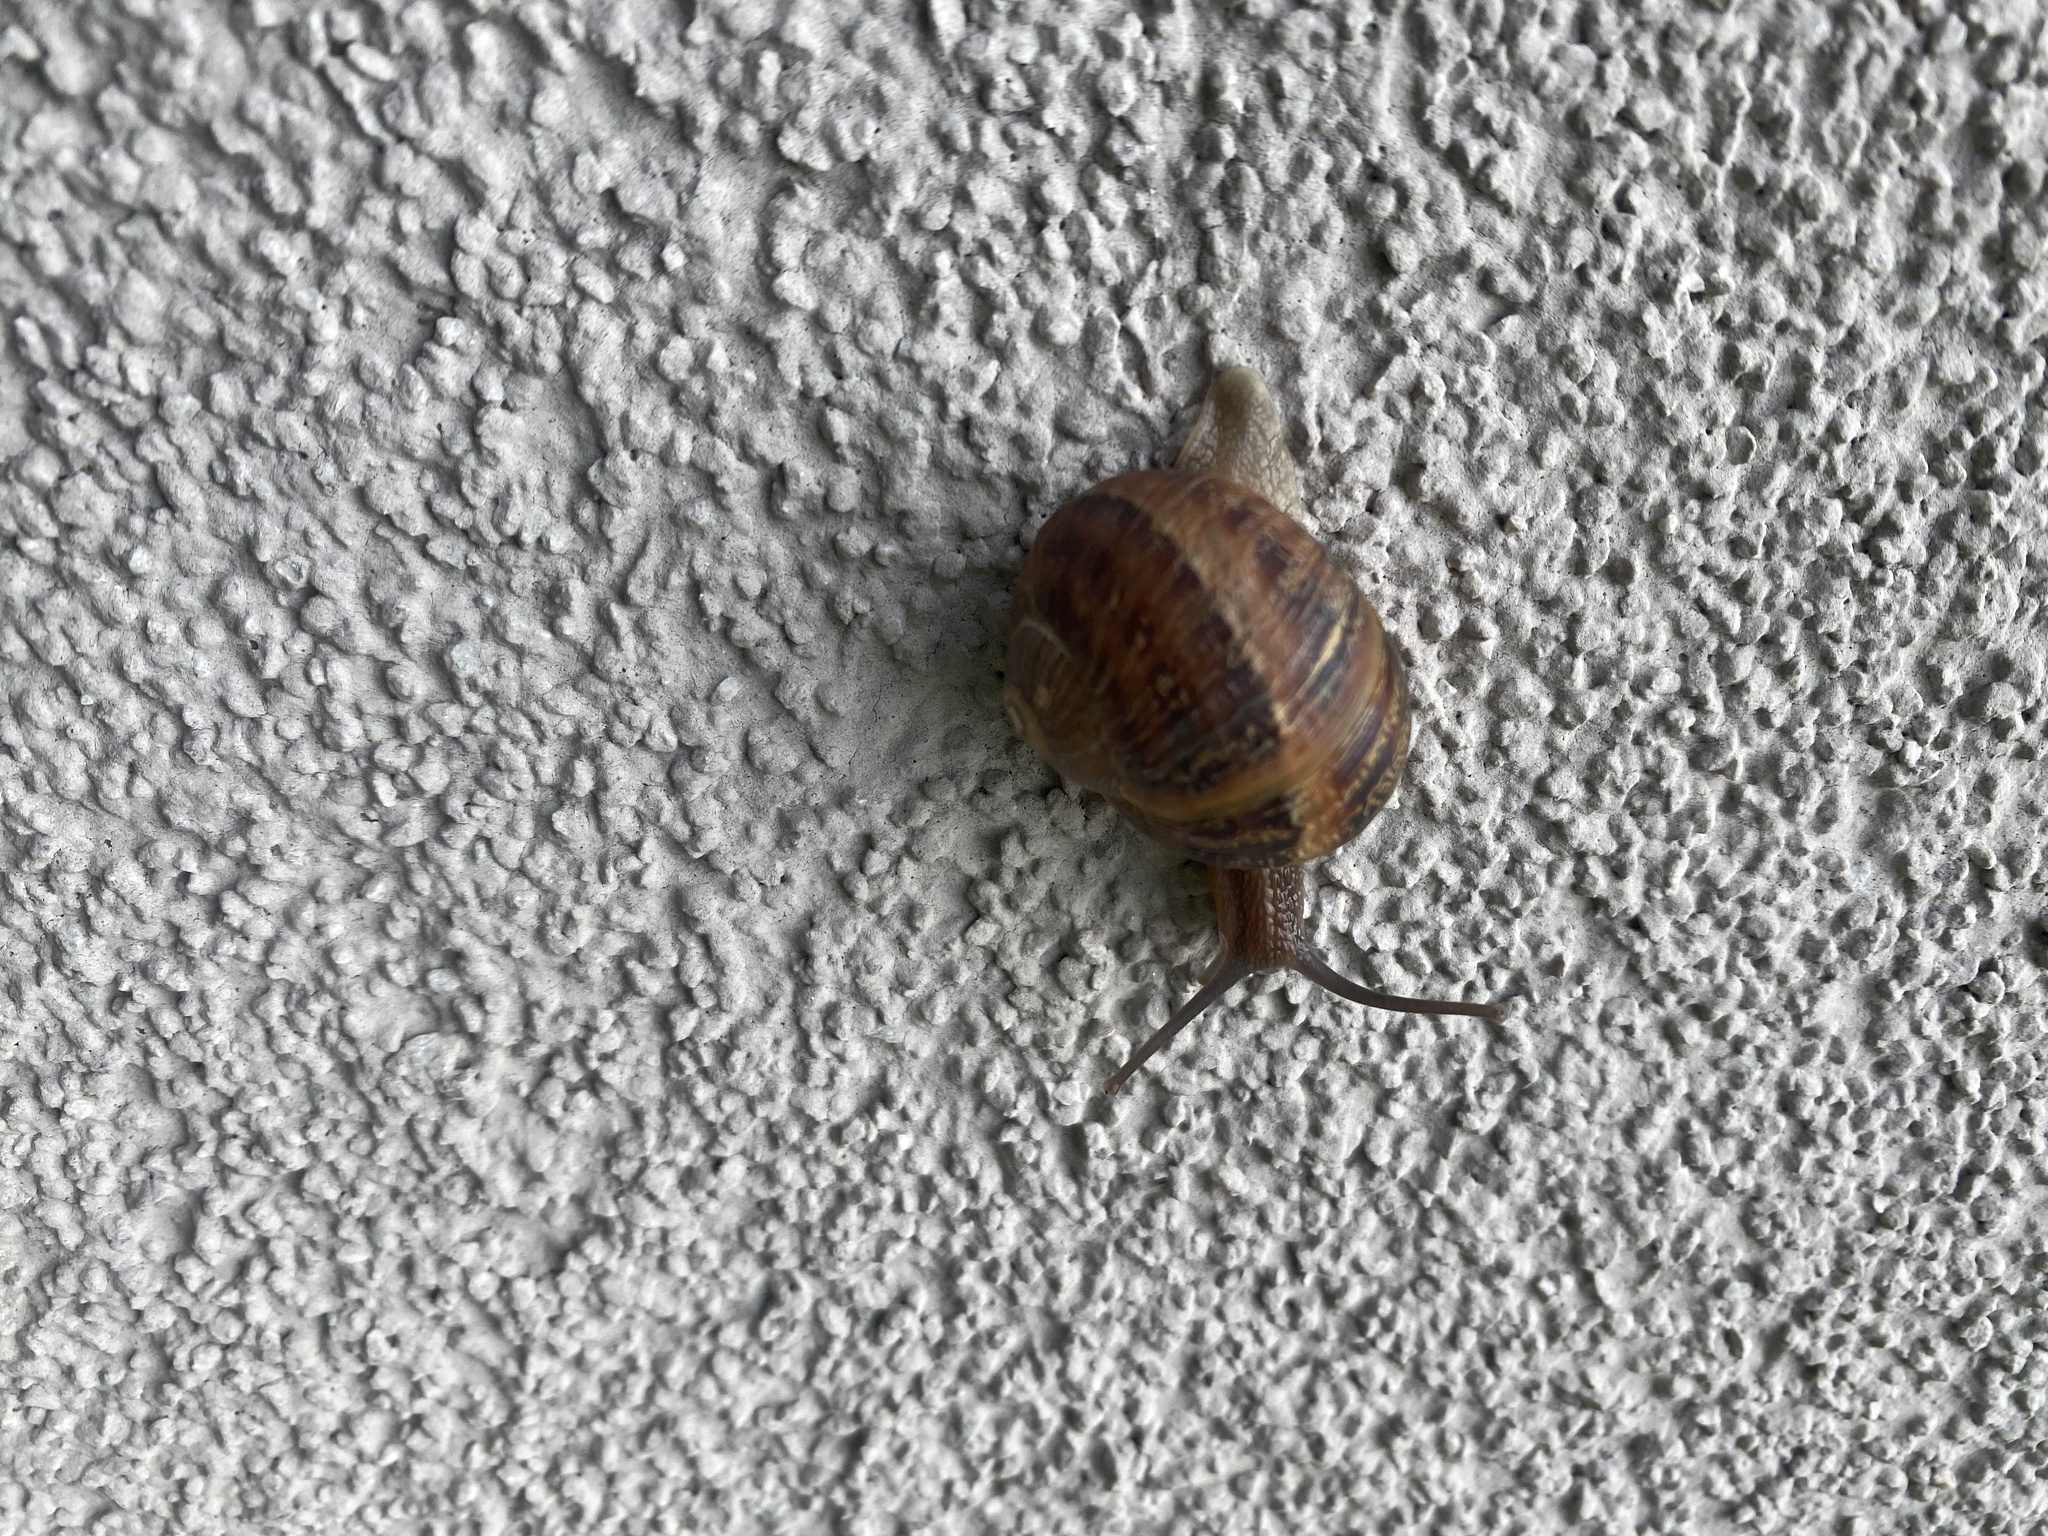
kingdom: Animalia
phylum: Mollusca
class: Gastropoda
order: Stylommatophora
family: Helicidae
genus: Cornu
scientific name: Cornu aspersum
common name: Brown garden snail
